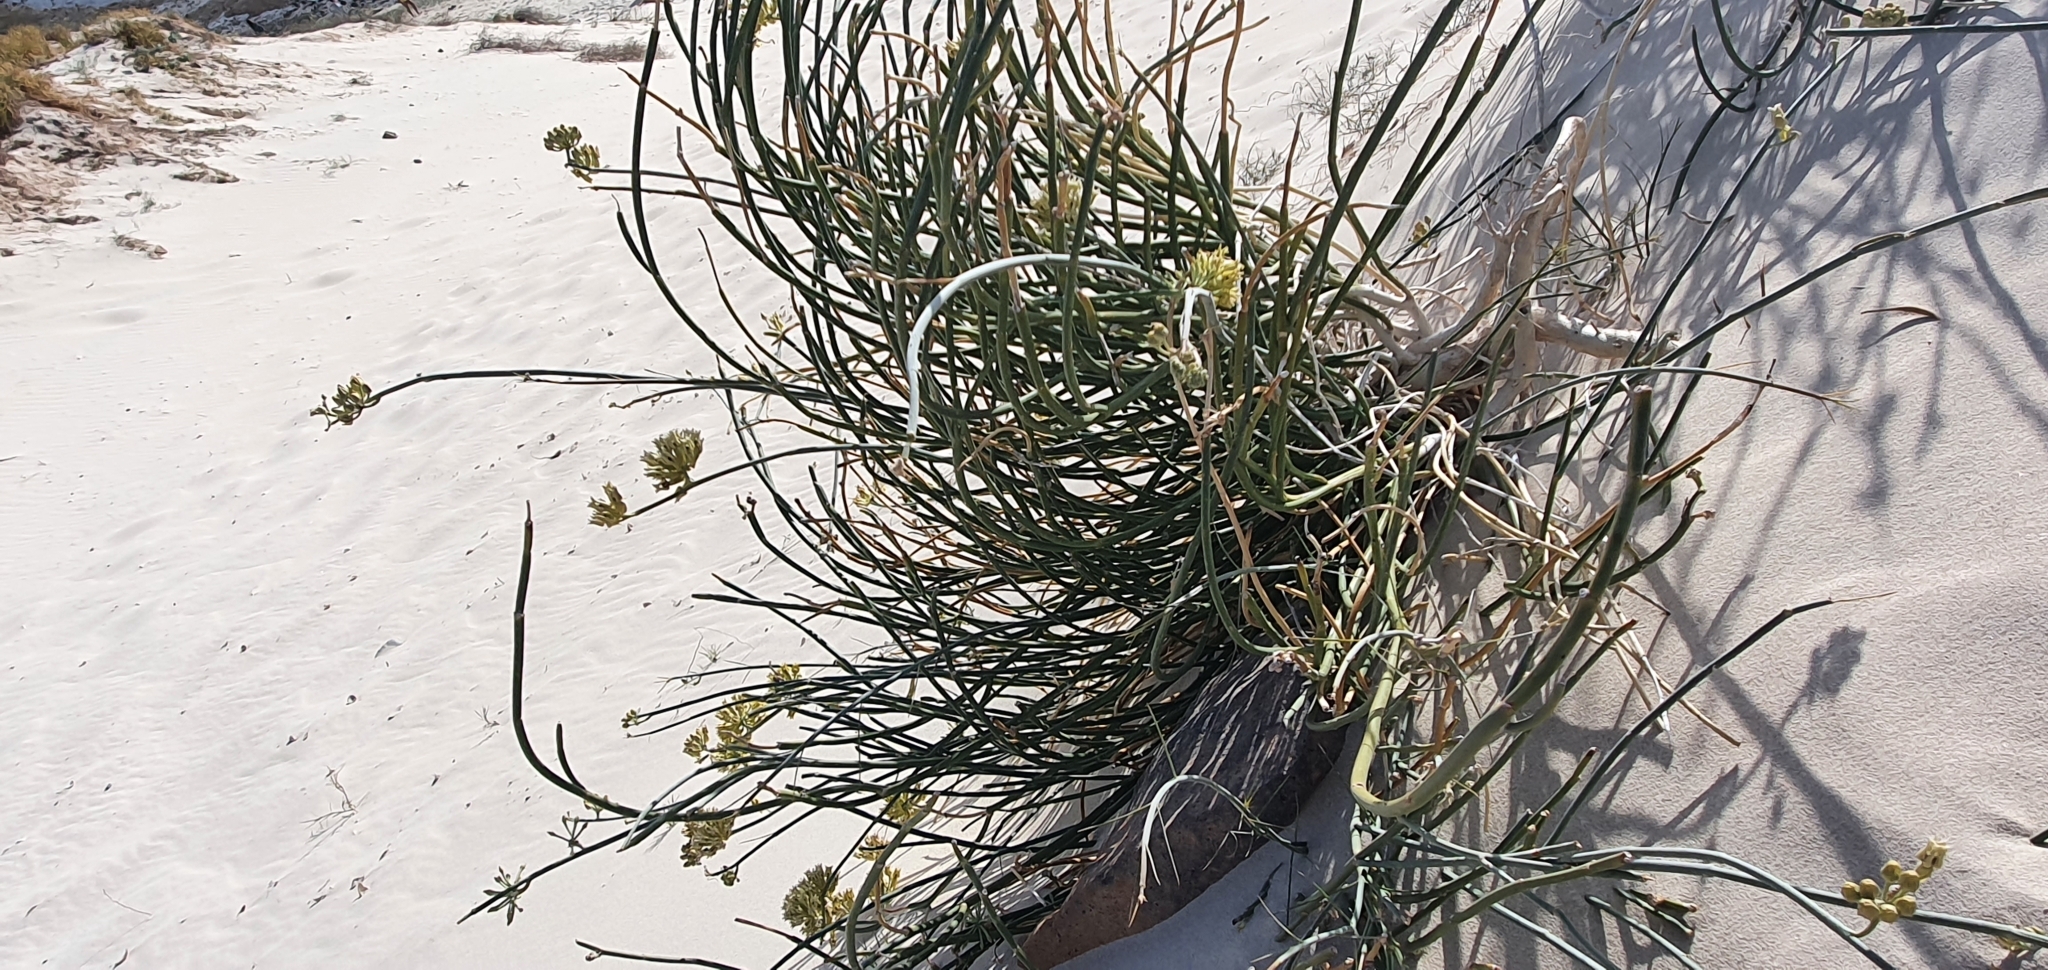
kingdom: Plantae
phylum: Tracheophyta
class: Magnoliopsida
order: Gentianales
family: Apocynaceae
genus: Asclepias
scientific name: Asclepias subulata
